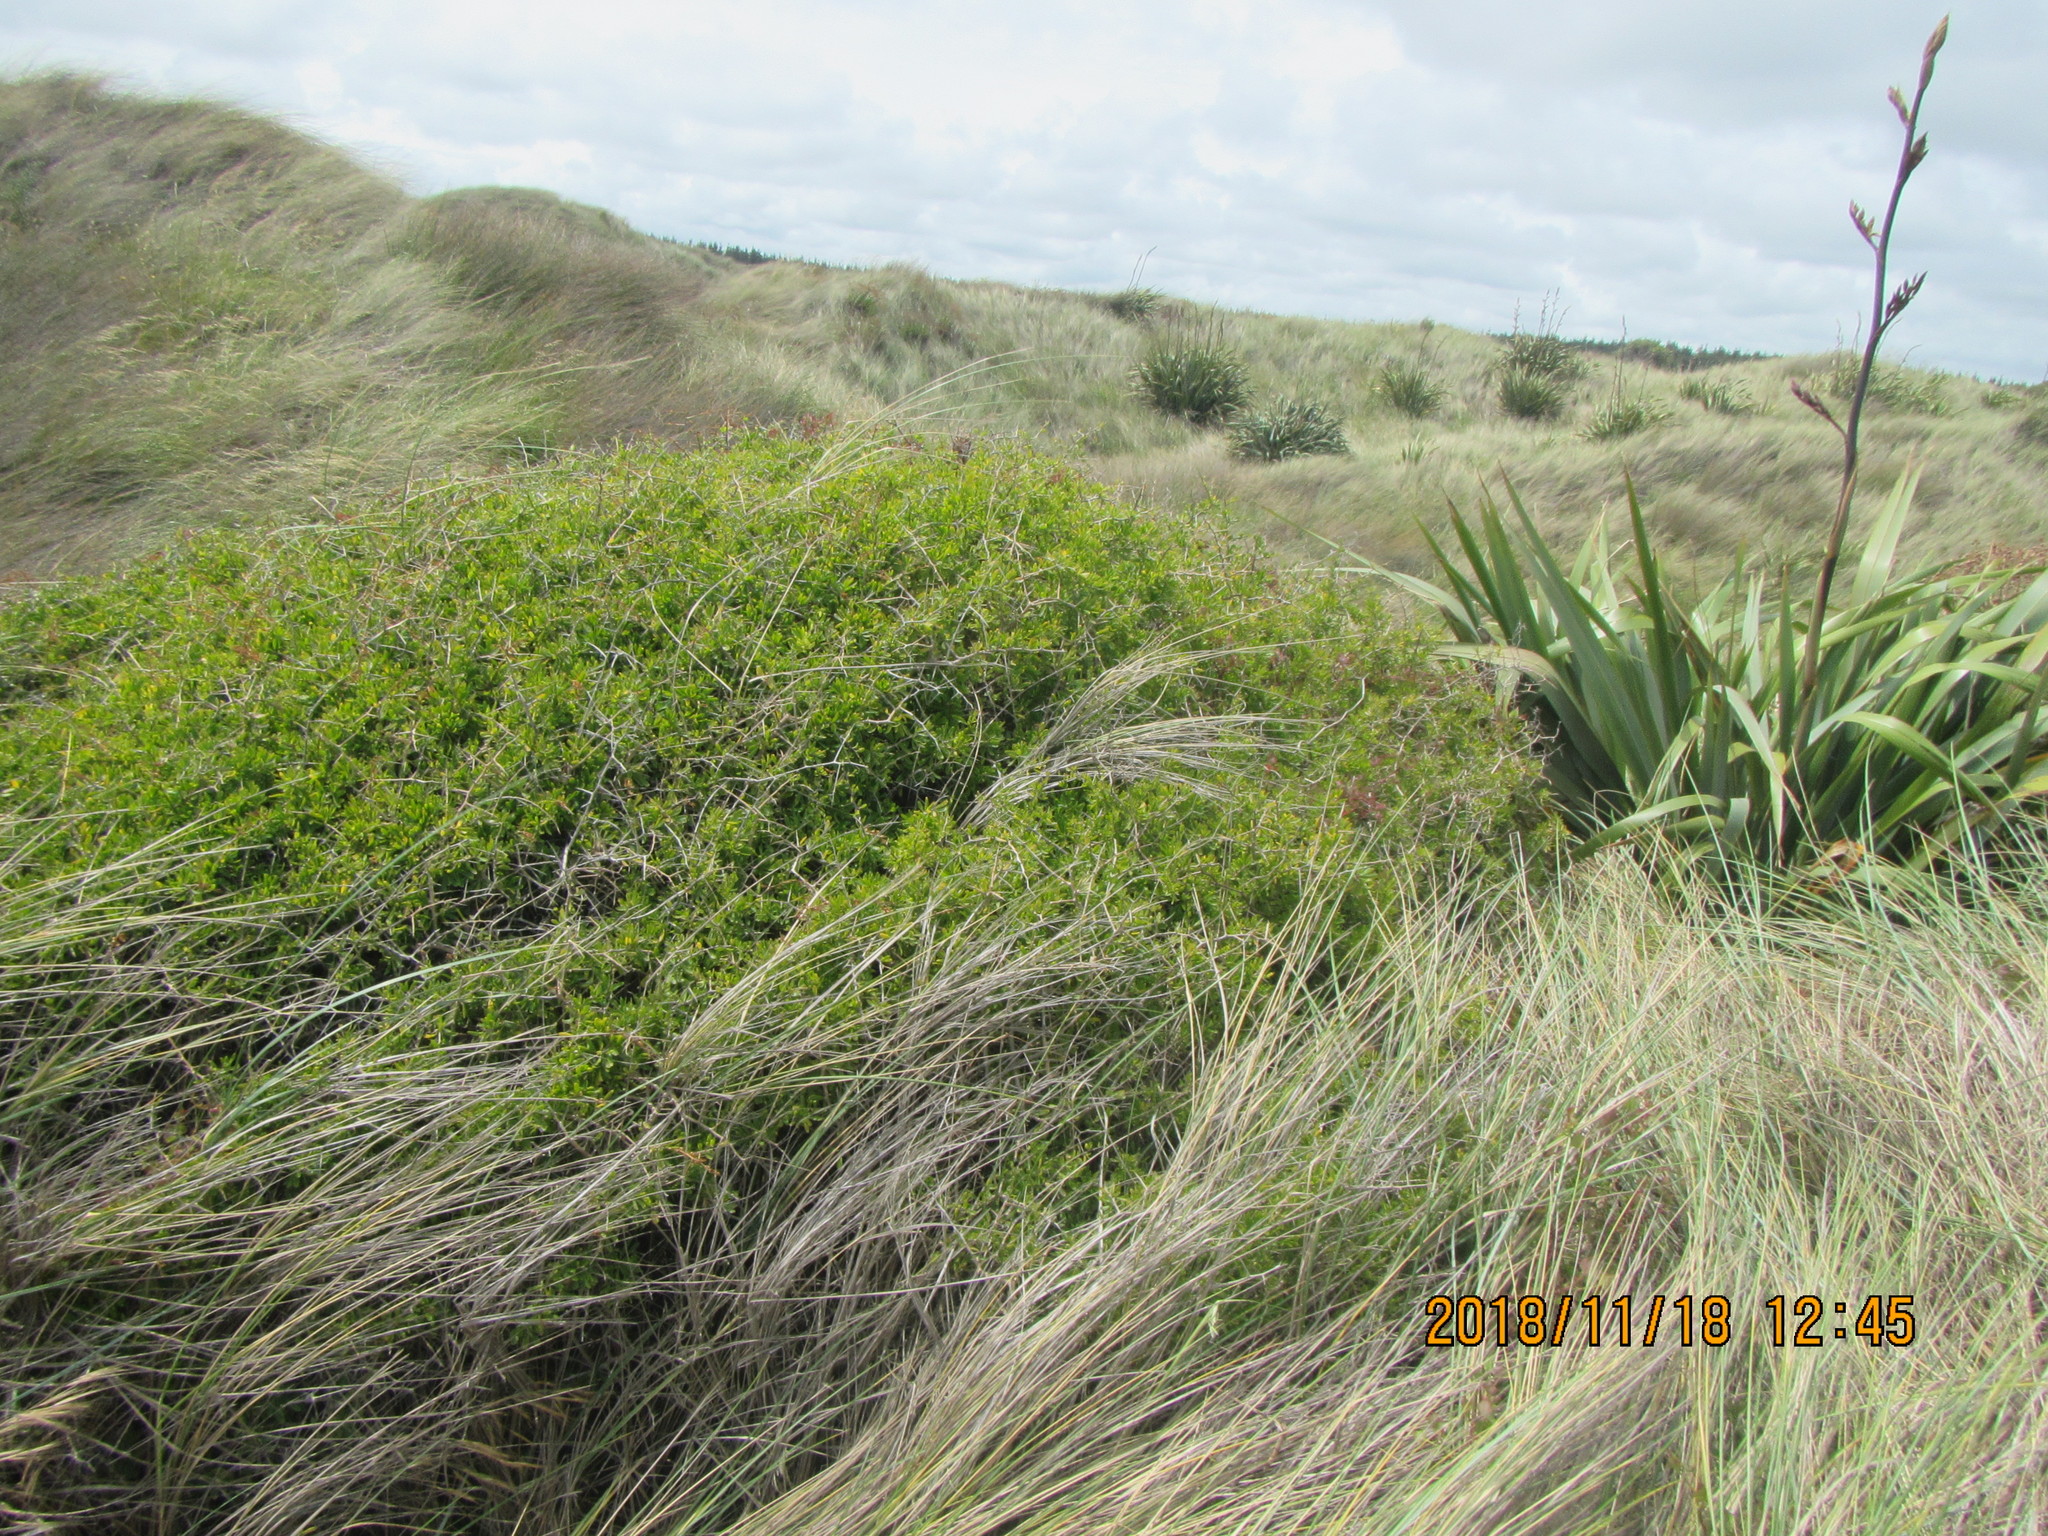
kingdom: Plantae
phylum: Tracheophyta
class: Magnoliopsida
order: Solanales
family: Solanaceae
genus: Lycium
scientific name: Lycium ferocissimum
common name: African boxthorn
